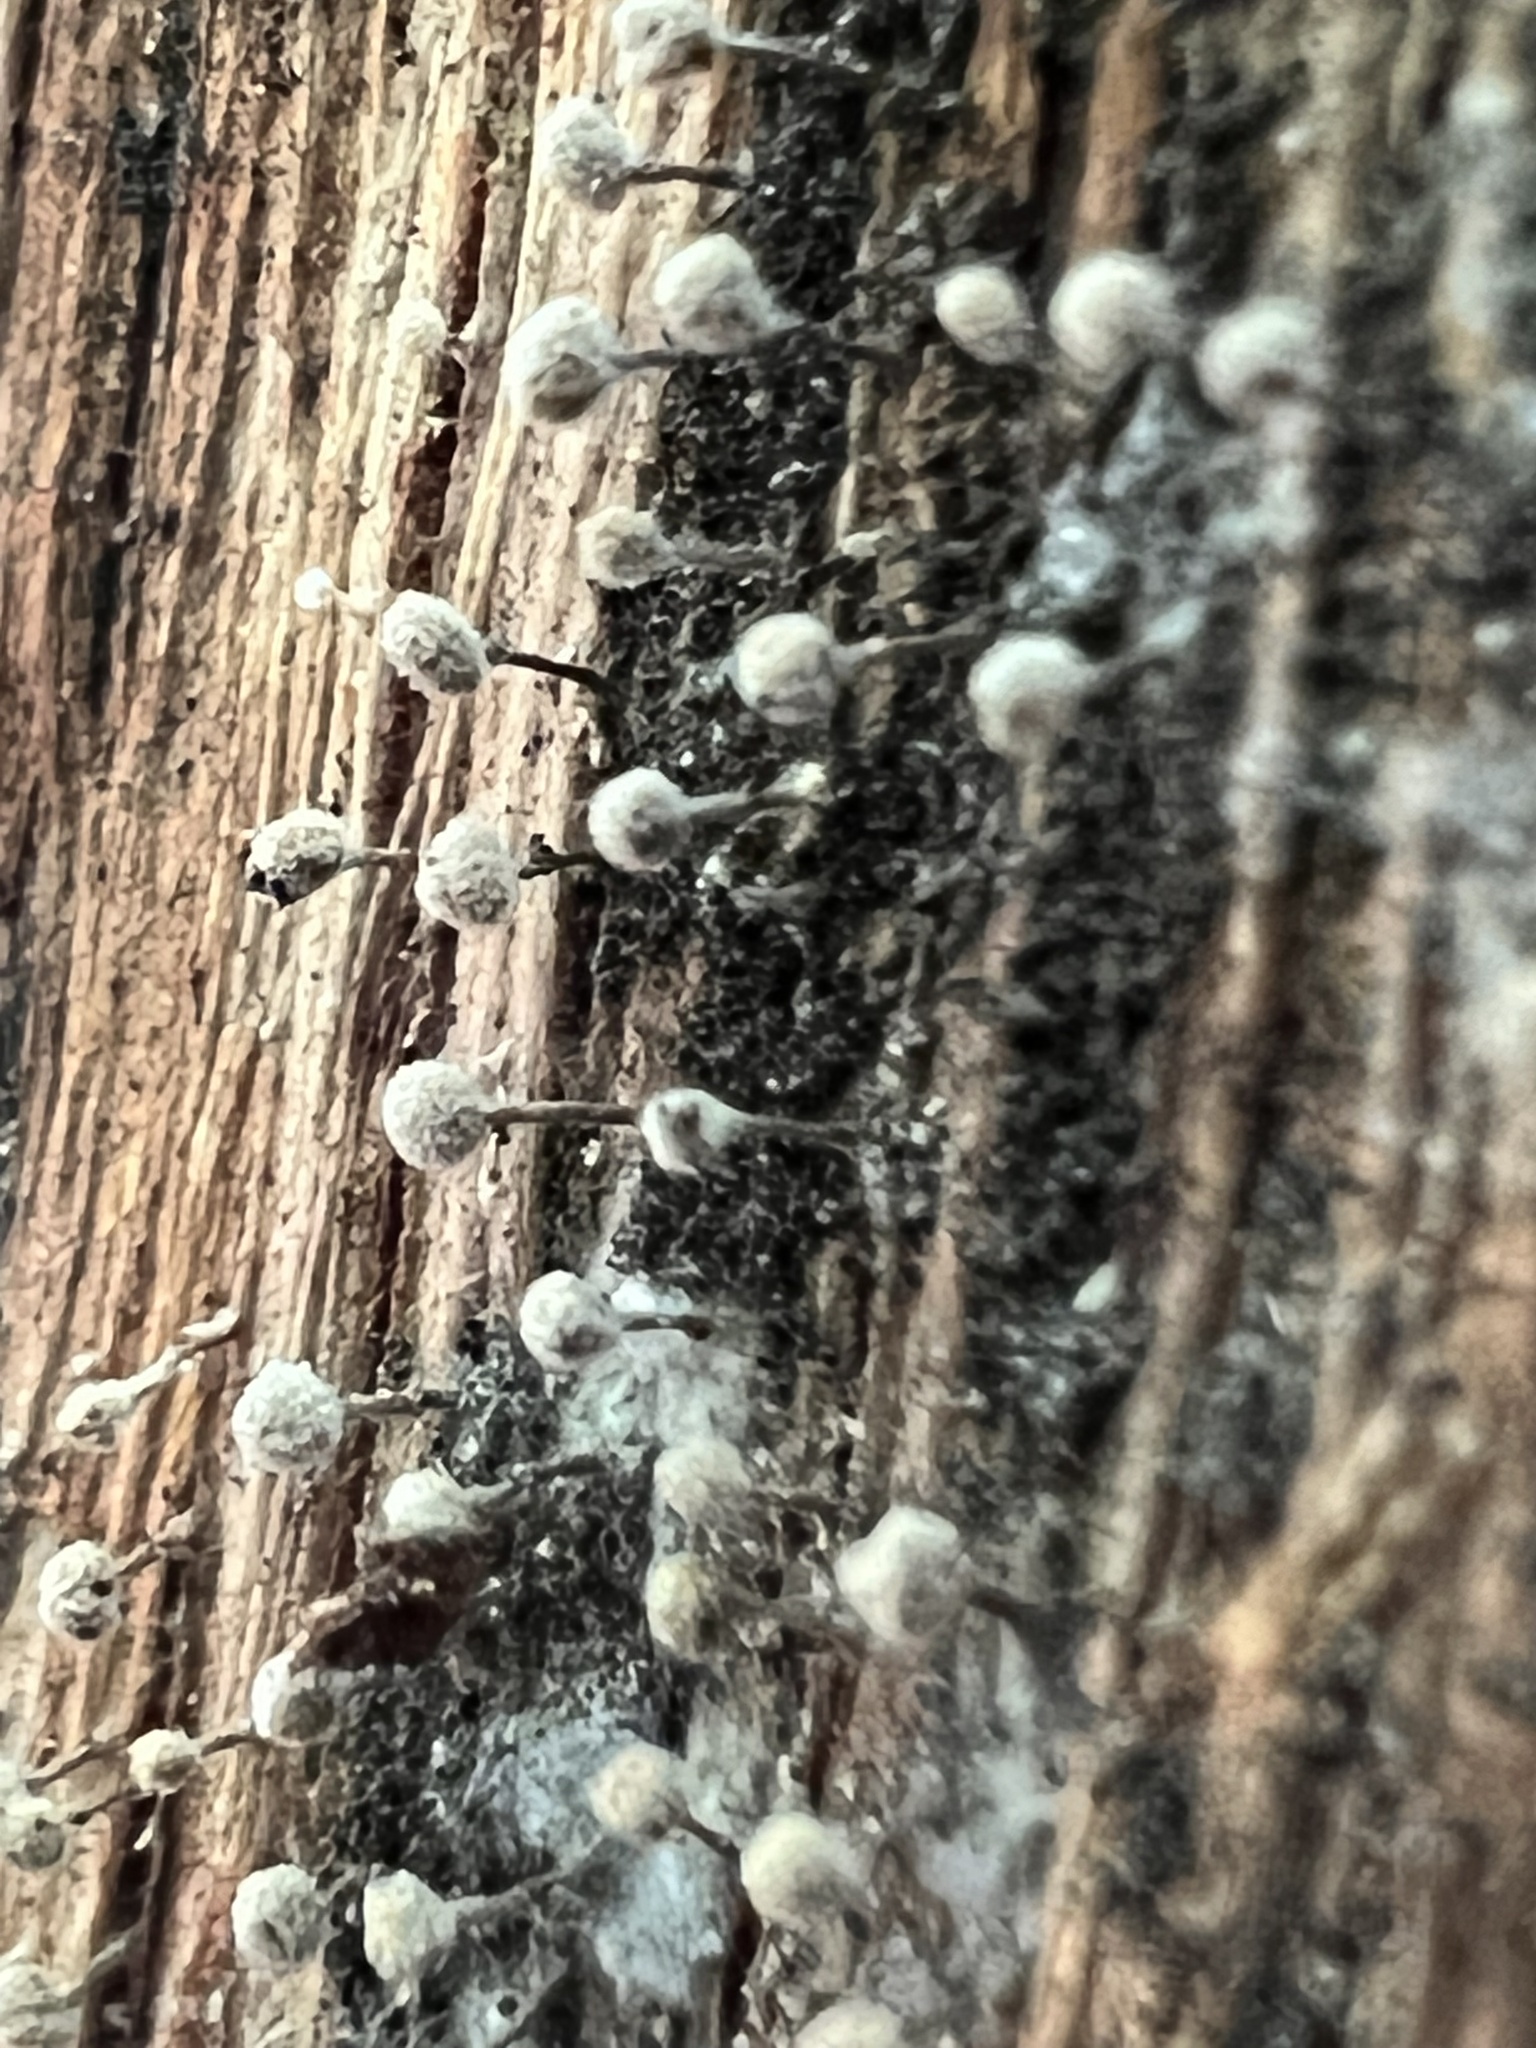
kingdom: Fungi
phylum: Basidiomycota
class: Atractiellomycetes
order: Atractiellales
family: Phleogenaceae
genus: Phleogena
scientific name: Phleogena faginea
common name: Fenugreek stalkball
